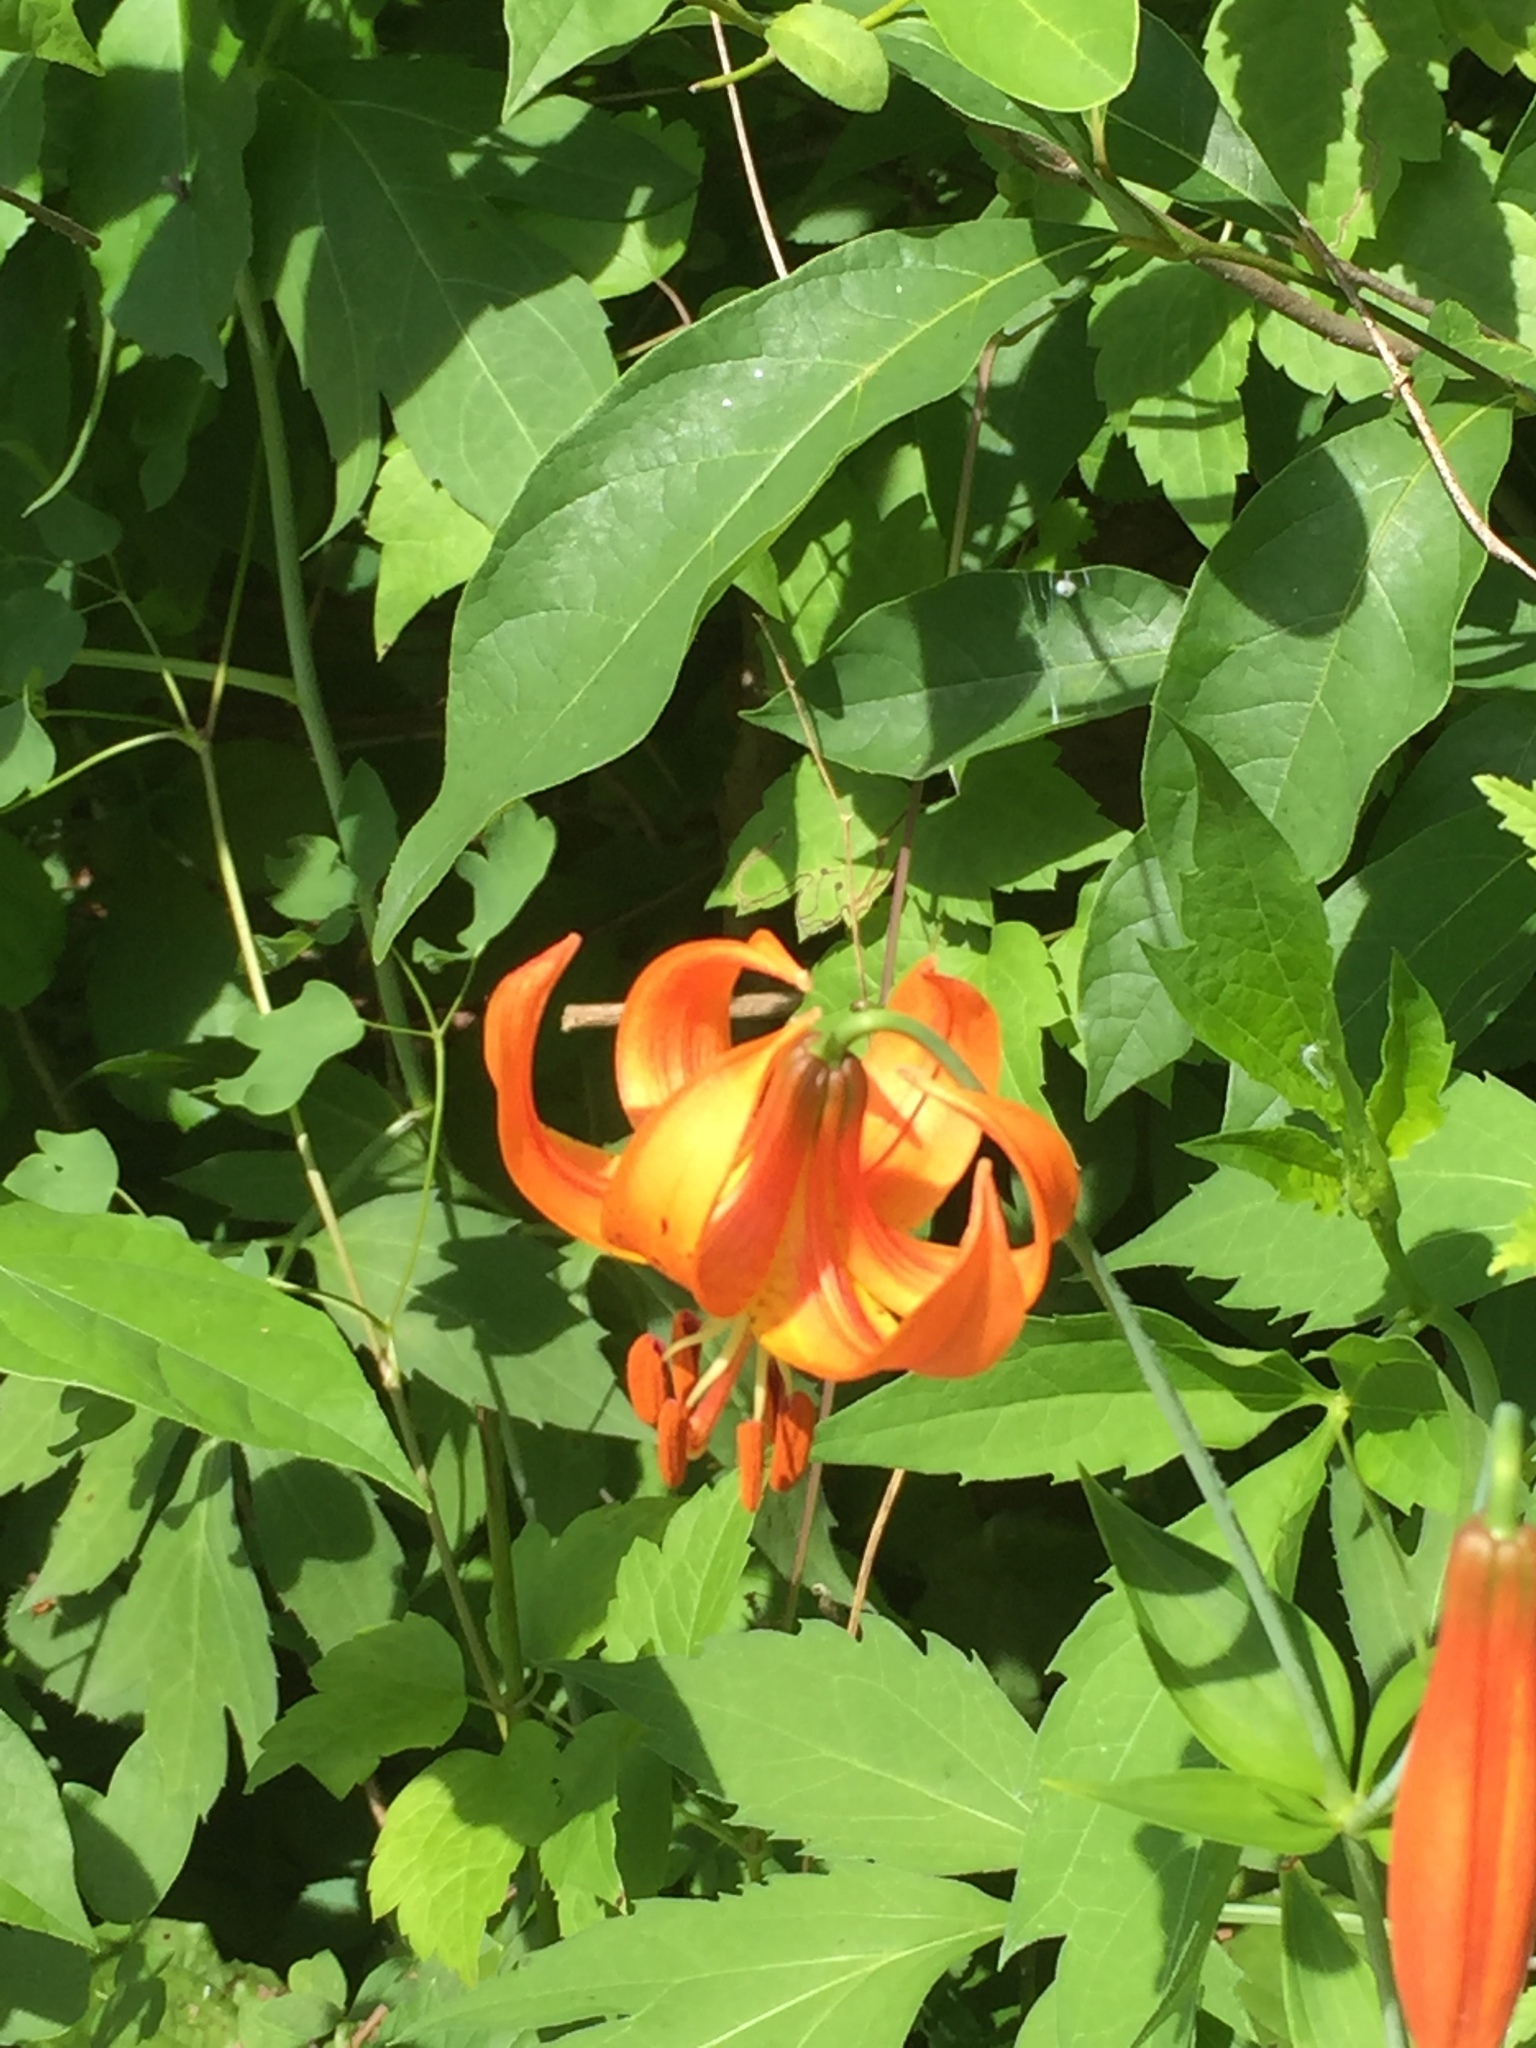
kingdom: Plantae
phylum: Tracheophyta
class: Liliopsida
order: Liliales
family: Liliaceae
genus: Lilium
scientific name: Lilium michiganense
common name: Michigan lily
